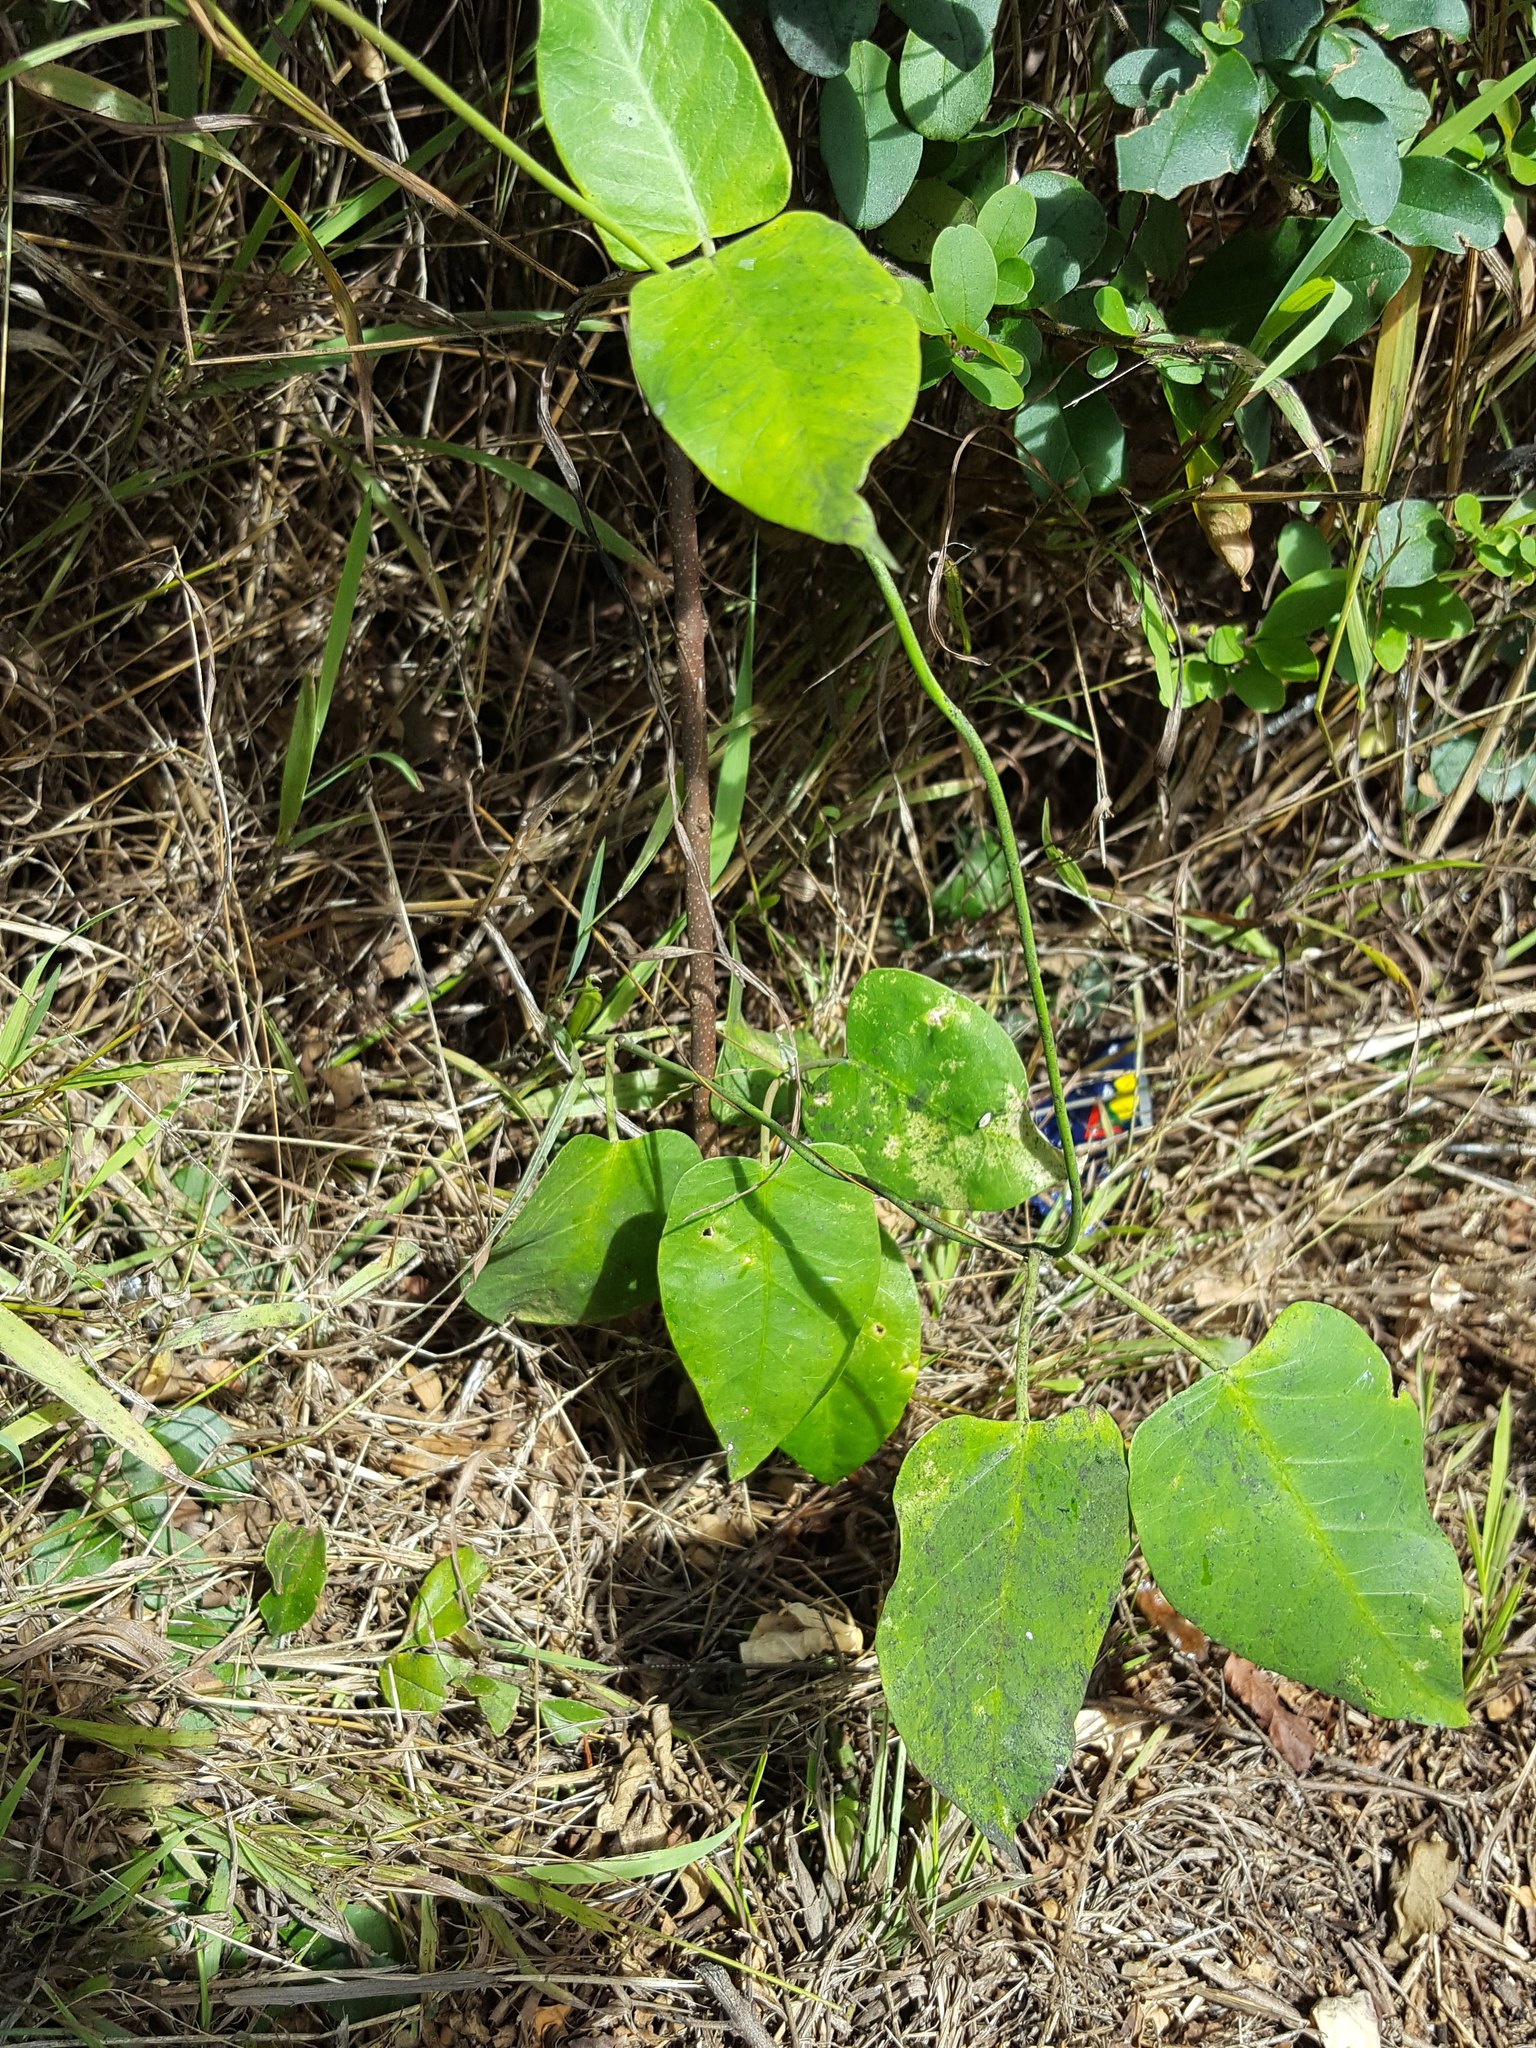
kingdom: Plantae
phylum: Tracheophyta
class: Magnoliopsida
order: Gentianales
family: Apocynaceae
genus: Araujia
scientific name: Araujia sericifera
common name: White bladderflower
